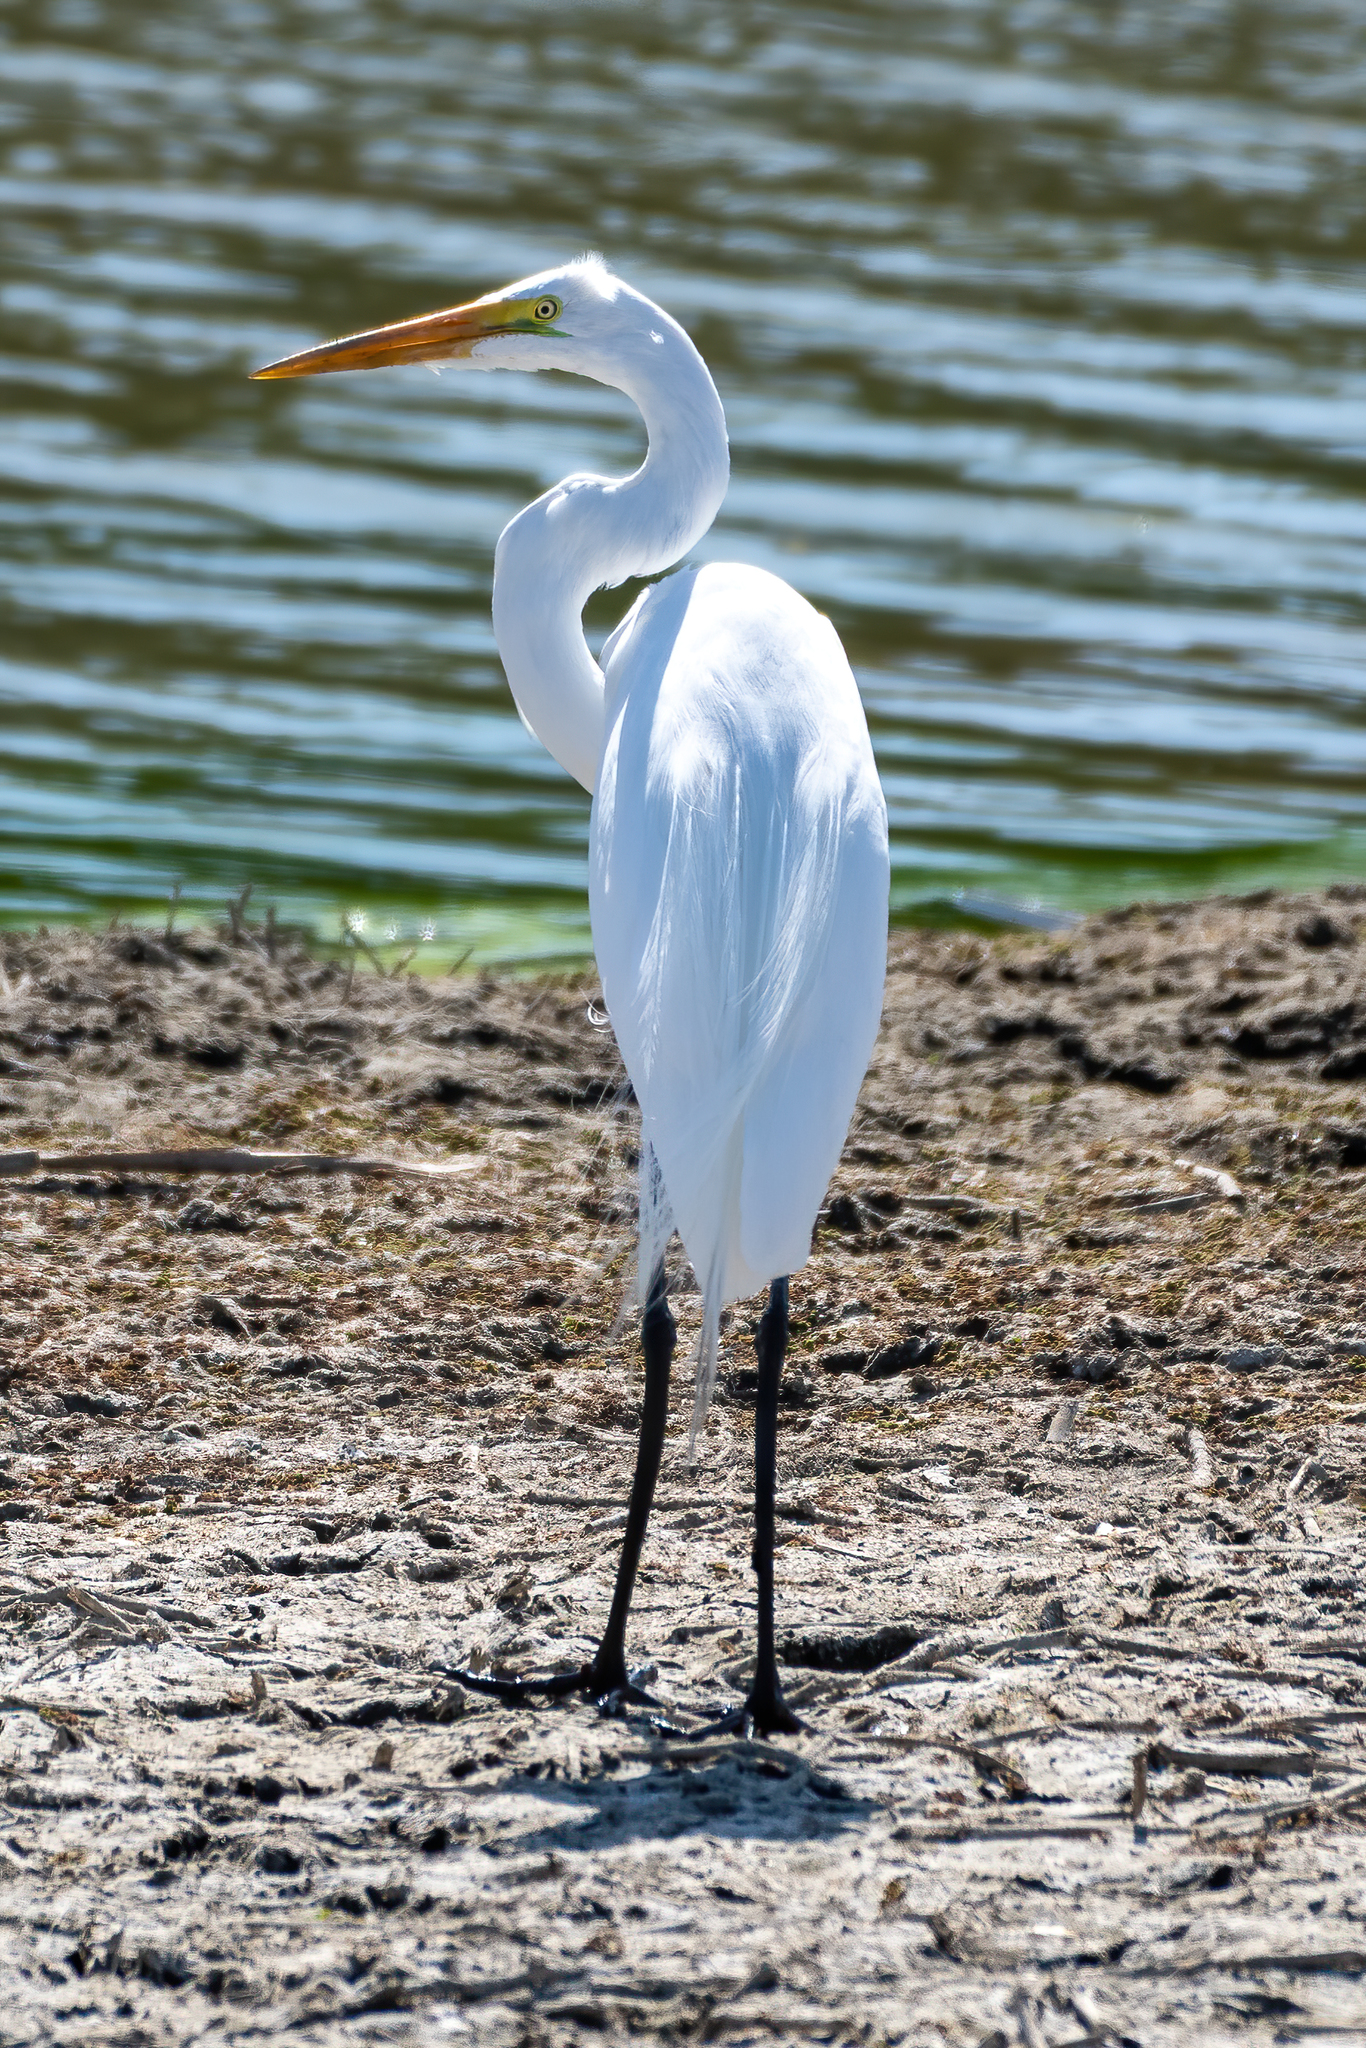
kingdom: Animalia
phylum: Chordata
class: Aves
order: Pelecaniformes
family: Ardeidae
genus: Ardea
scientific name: Ardea alba
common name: Great egret
